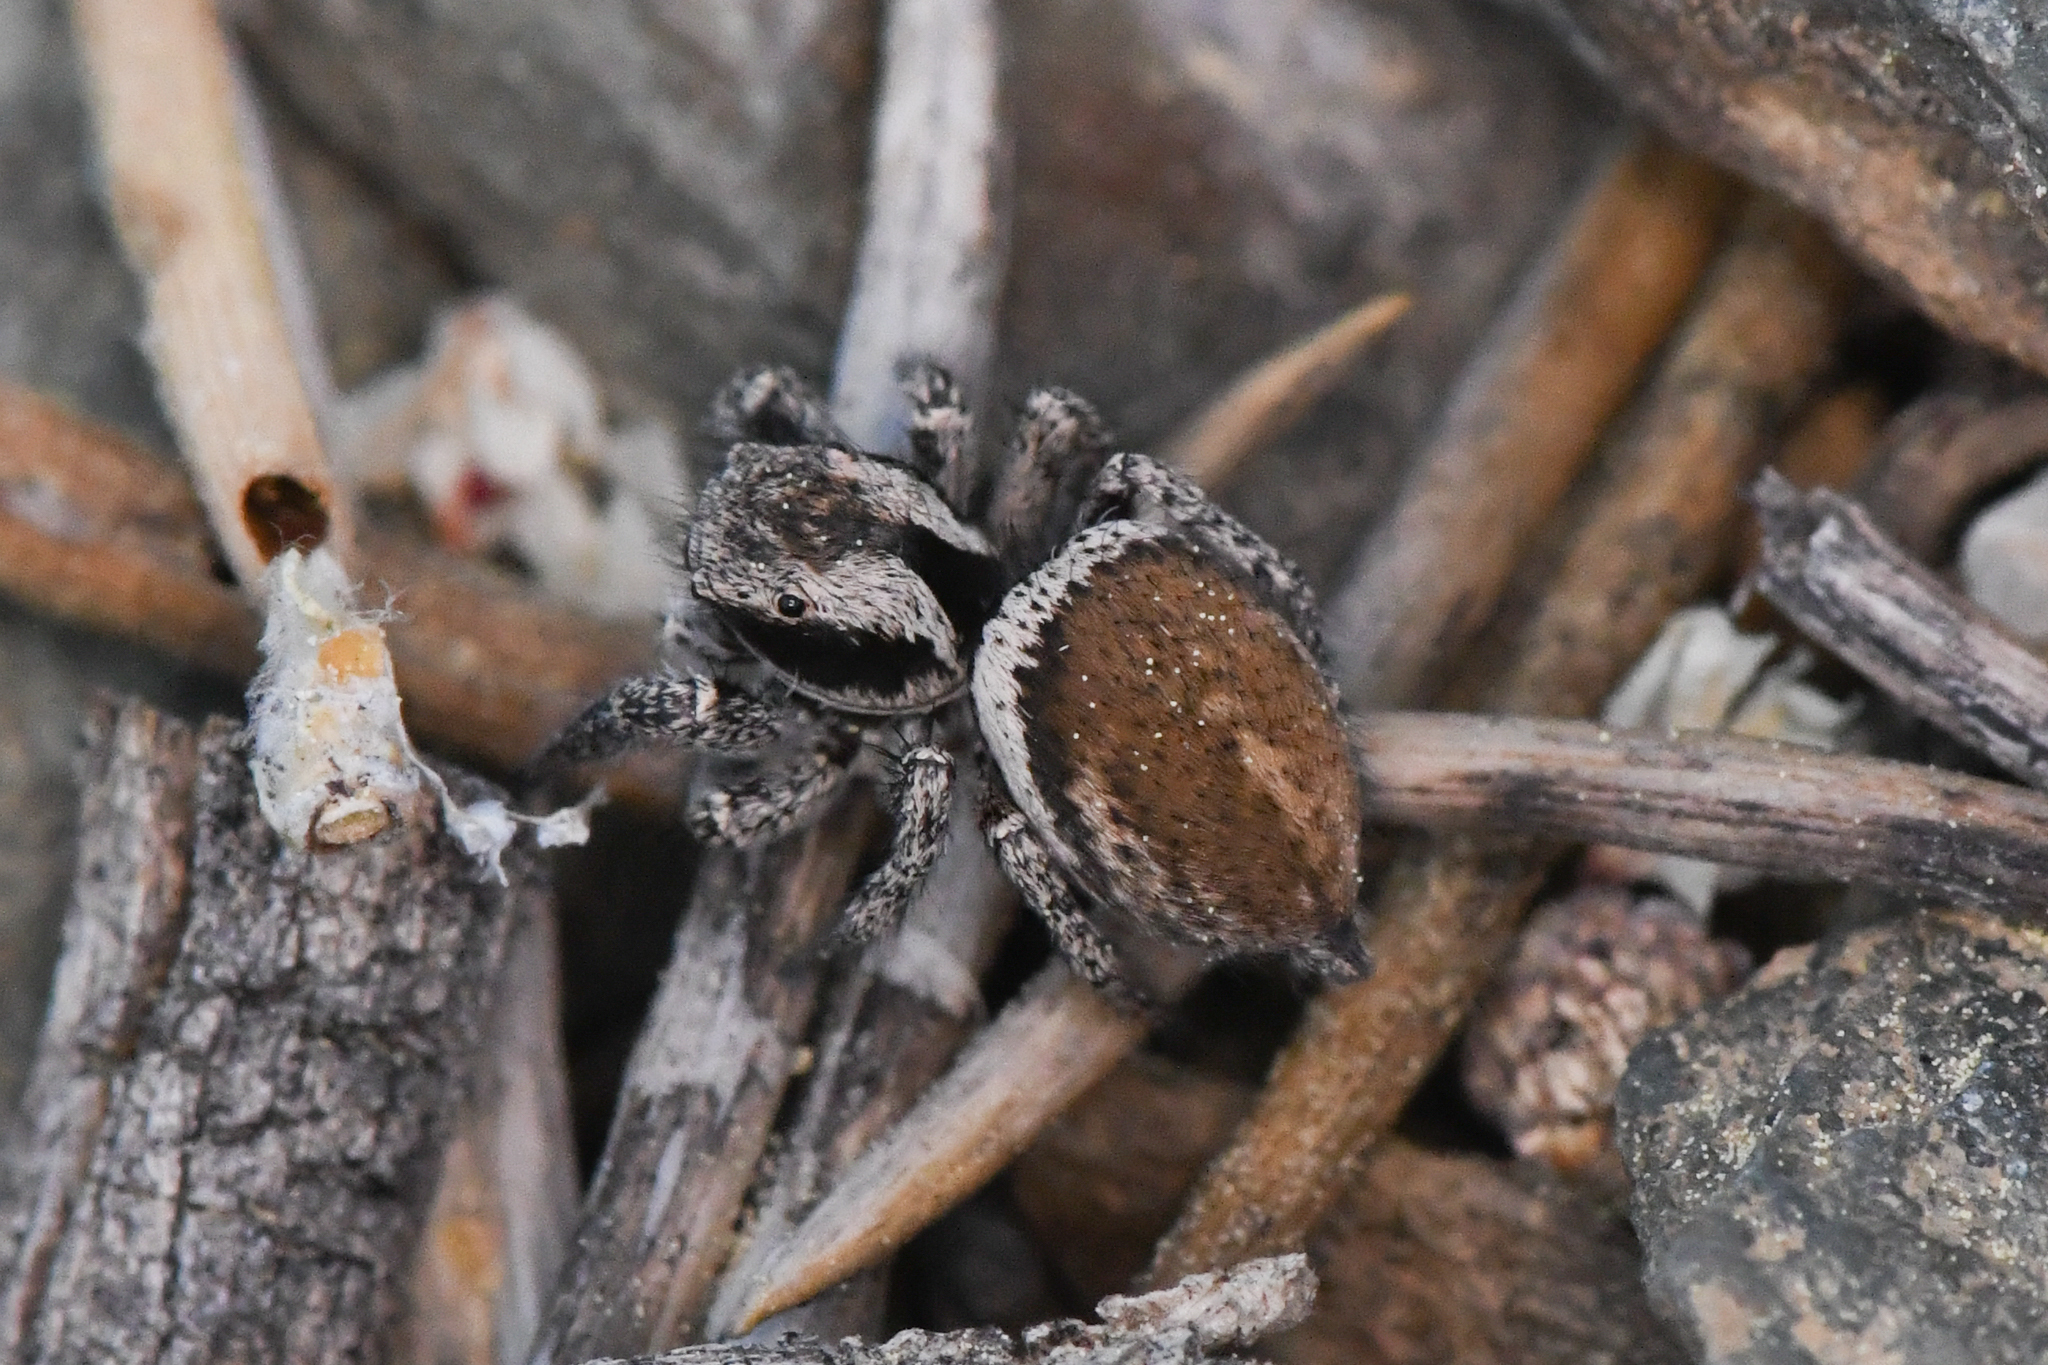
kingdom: Animalia
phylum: Arthropoda
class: Arachnida
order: Araneae
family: Salticidae
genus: Habronattus
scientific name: Habronattus oregonensis
